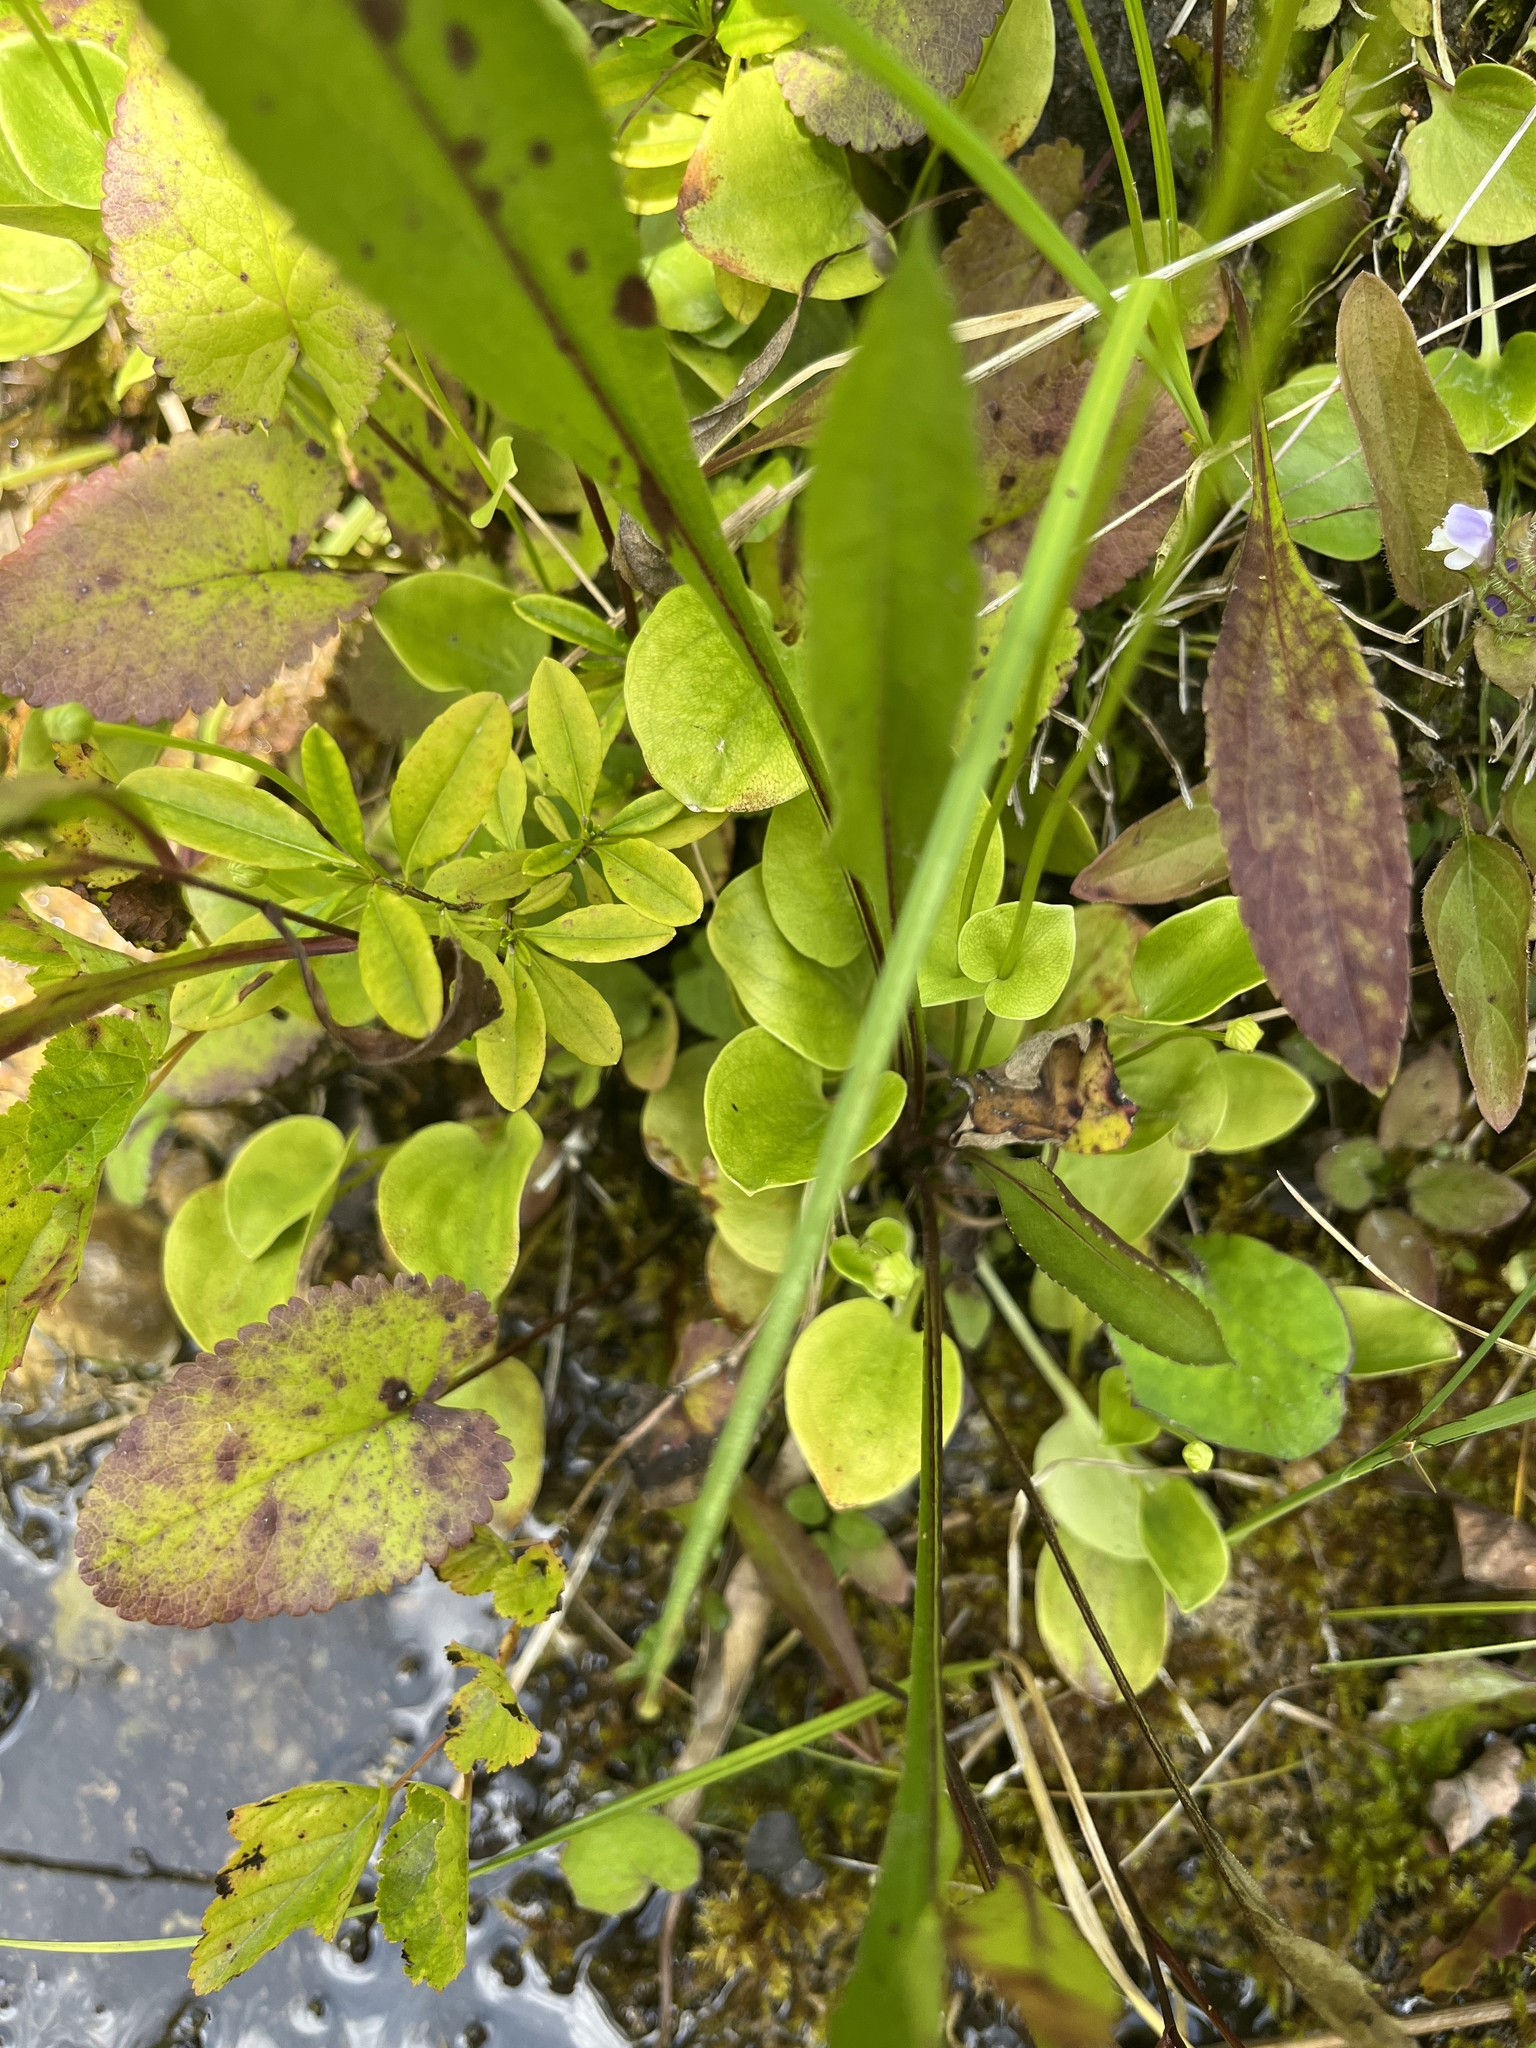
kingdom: Plantae
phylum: Tracheophyta
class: Magnoliopsida
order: Celastrales
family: Parnassiaceae
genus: Parnassia
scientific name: Parnassia glauca
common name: American grass-of-parnassus
